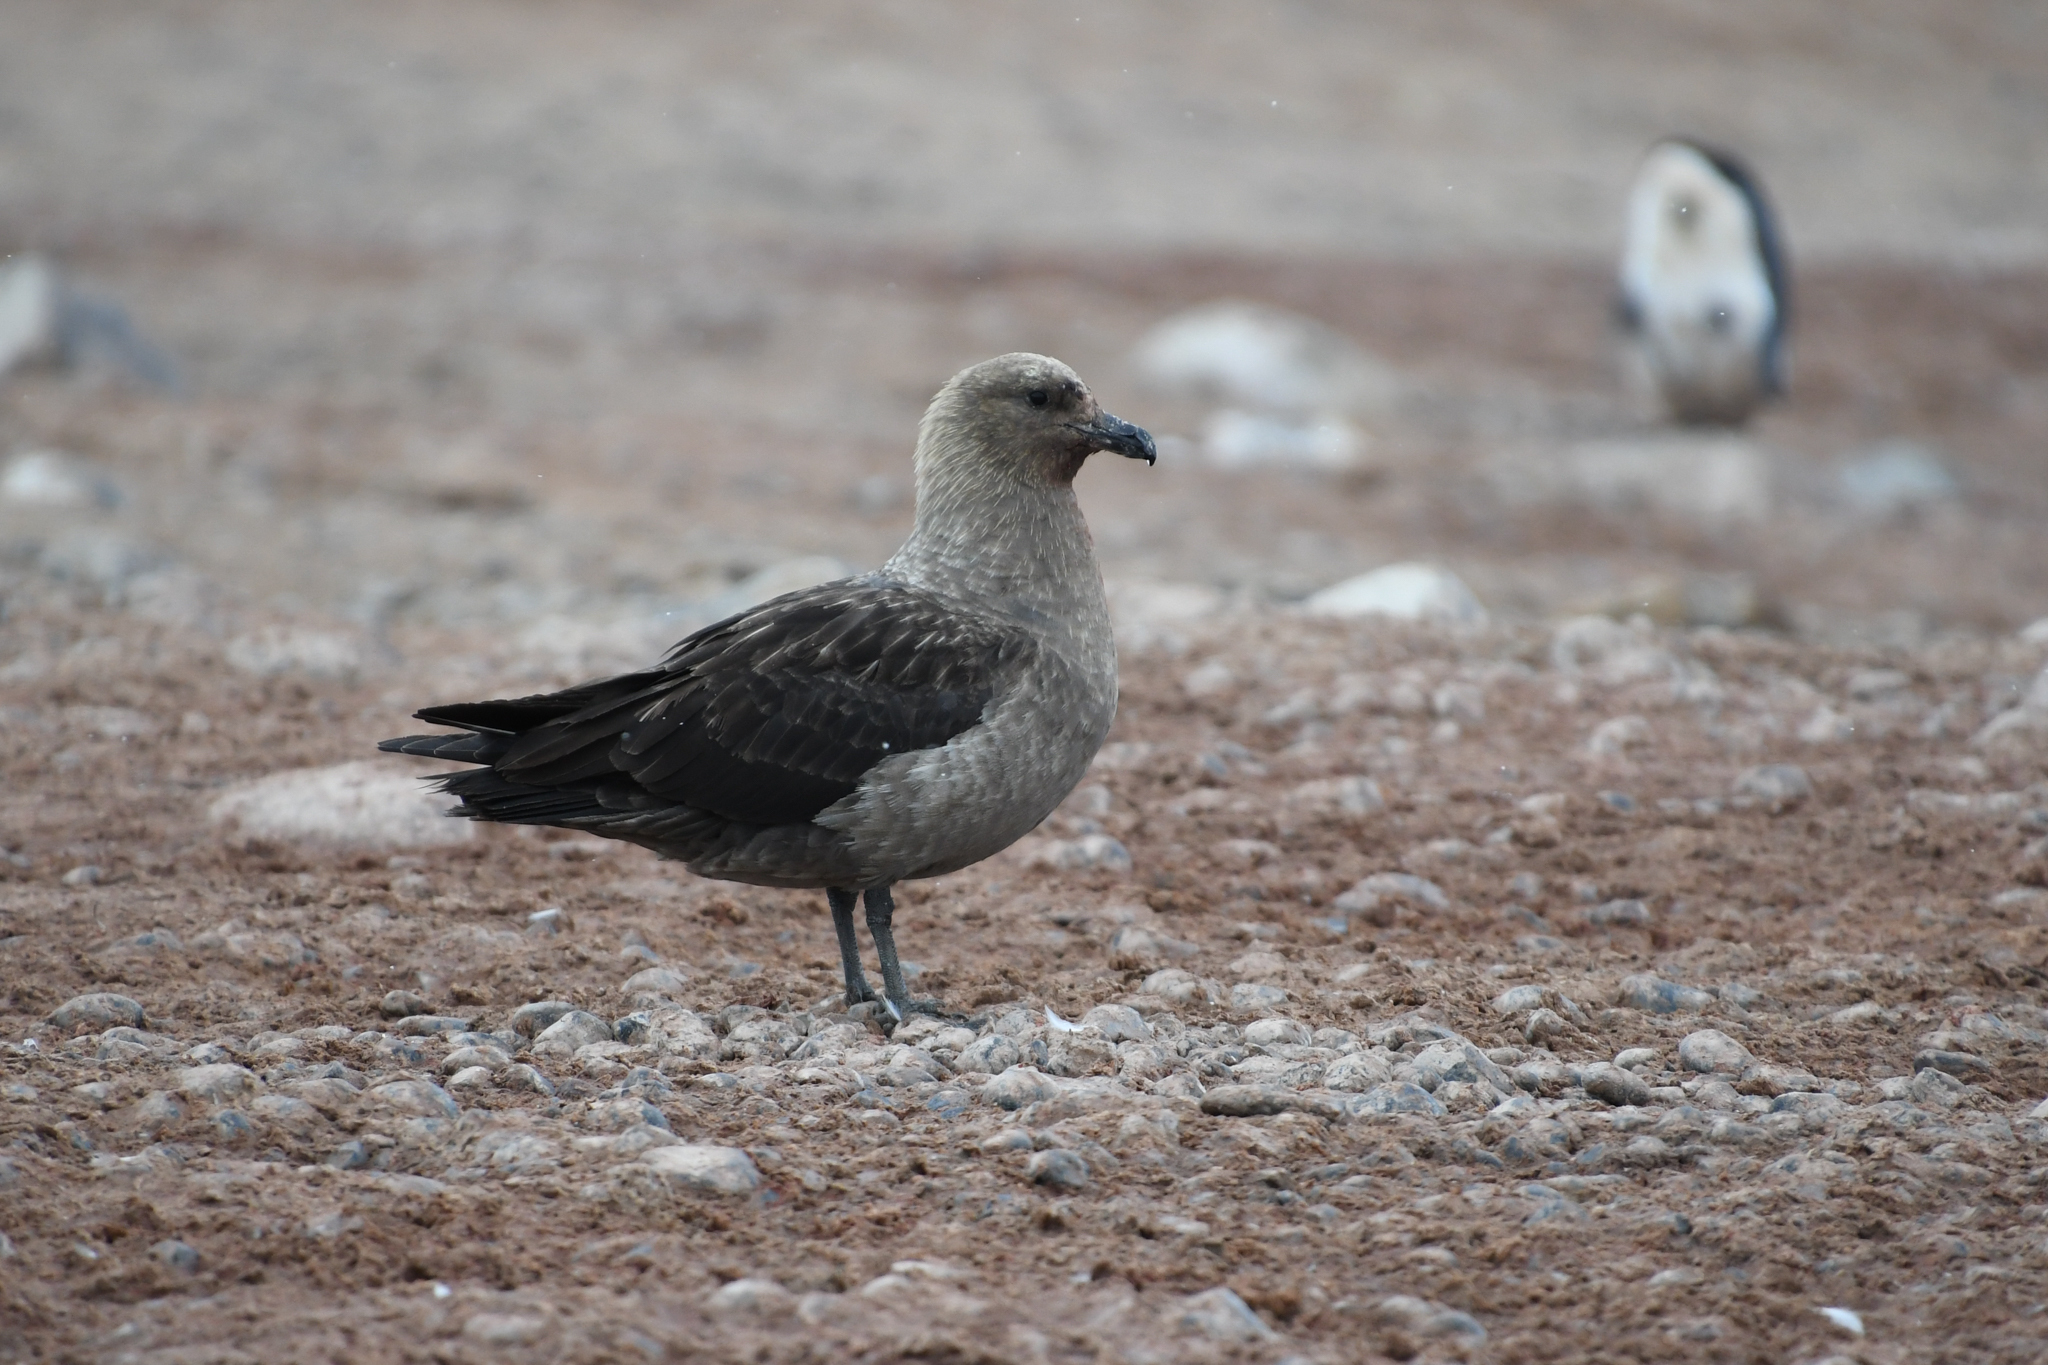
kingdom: Animalia
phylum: Chordata
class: Aves
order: Charadriiformes
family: Stercorariidae
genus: Stercorarius
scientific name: Stercorarius maccormicki
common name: South polar skua
